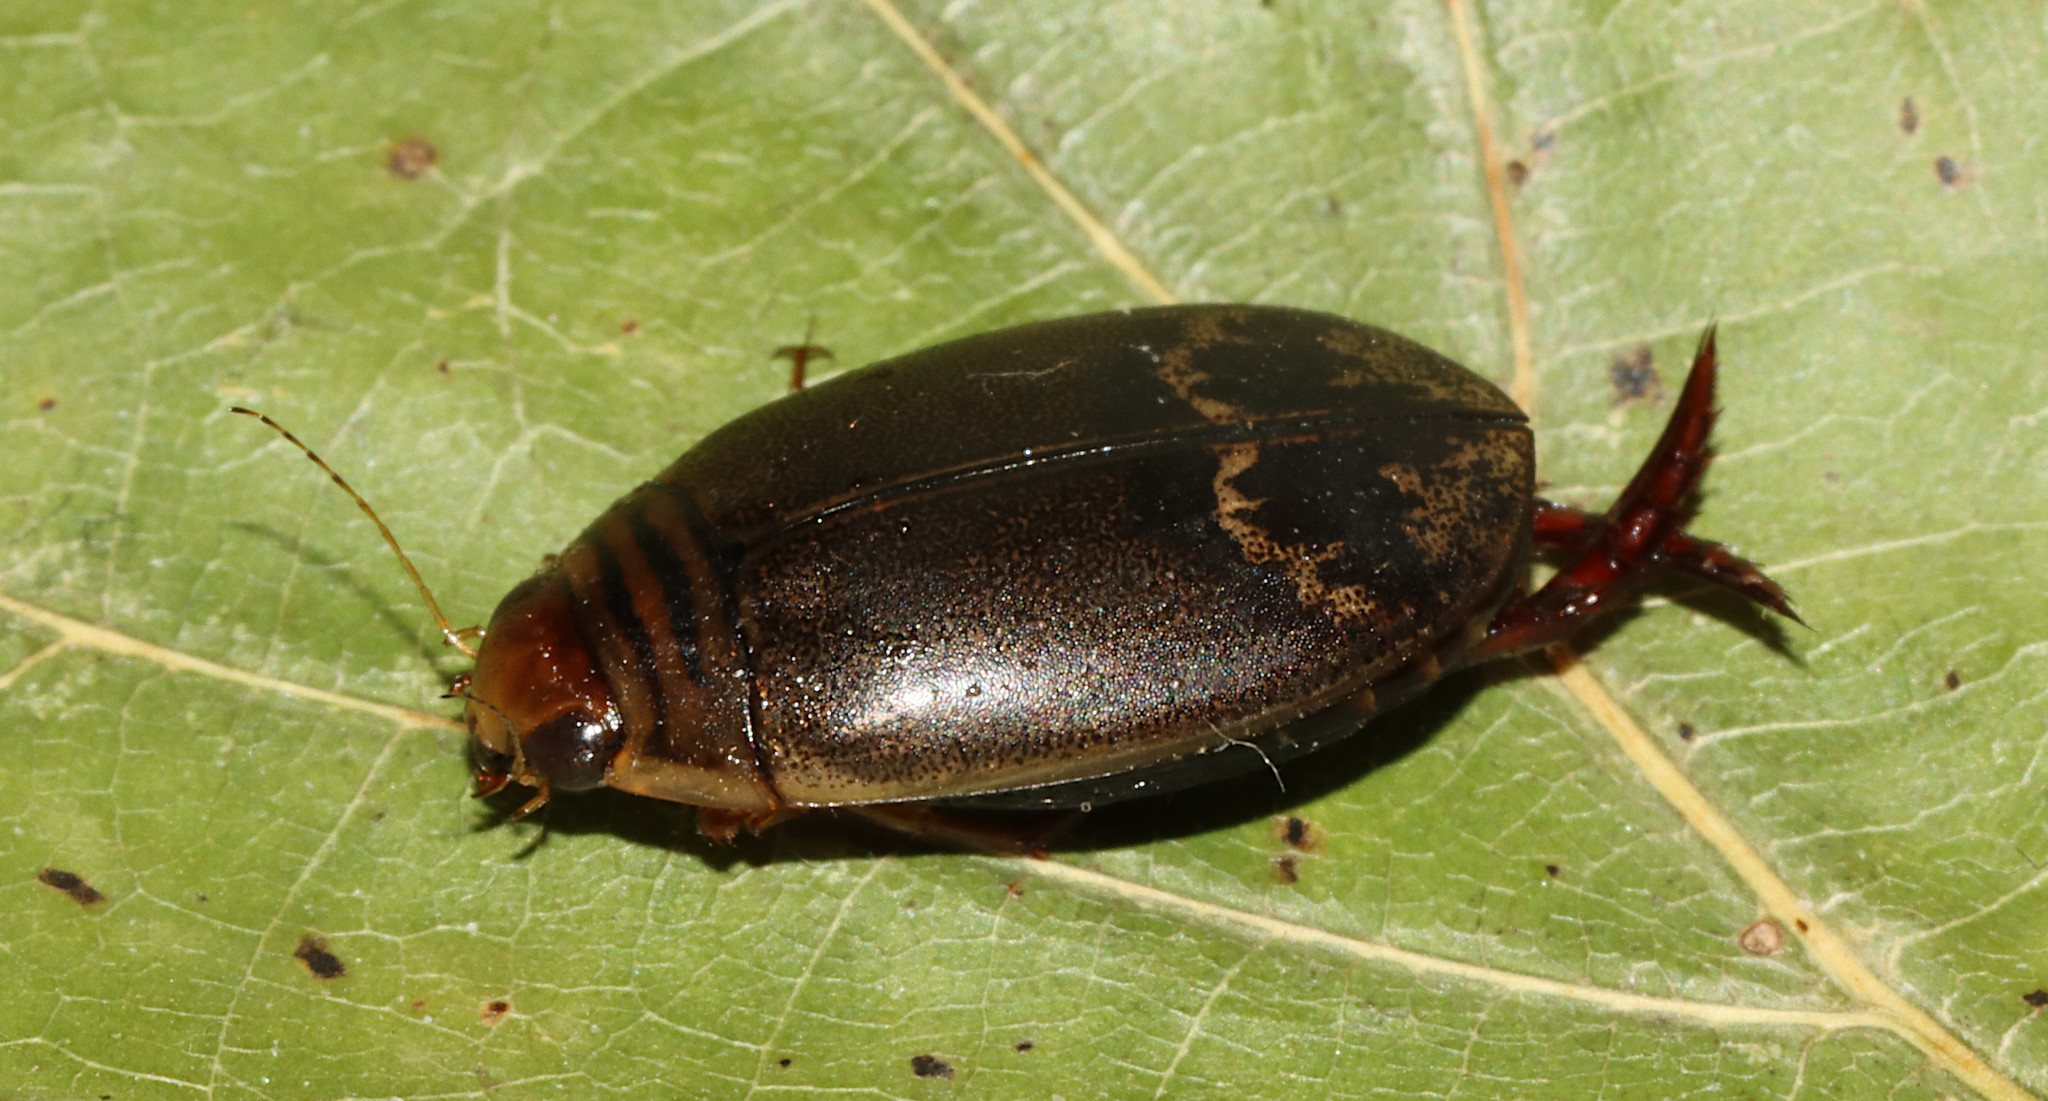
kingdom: Animalia
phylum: Arthropoda
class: Insecta
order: Coleoptera
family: Dytiscidae
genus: Acilius
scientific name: Acilius fraternus
